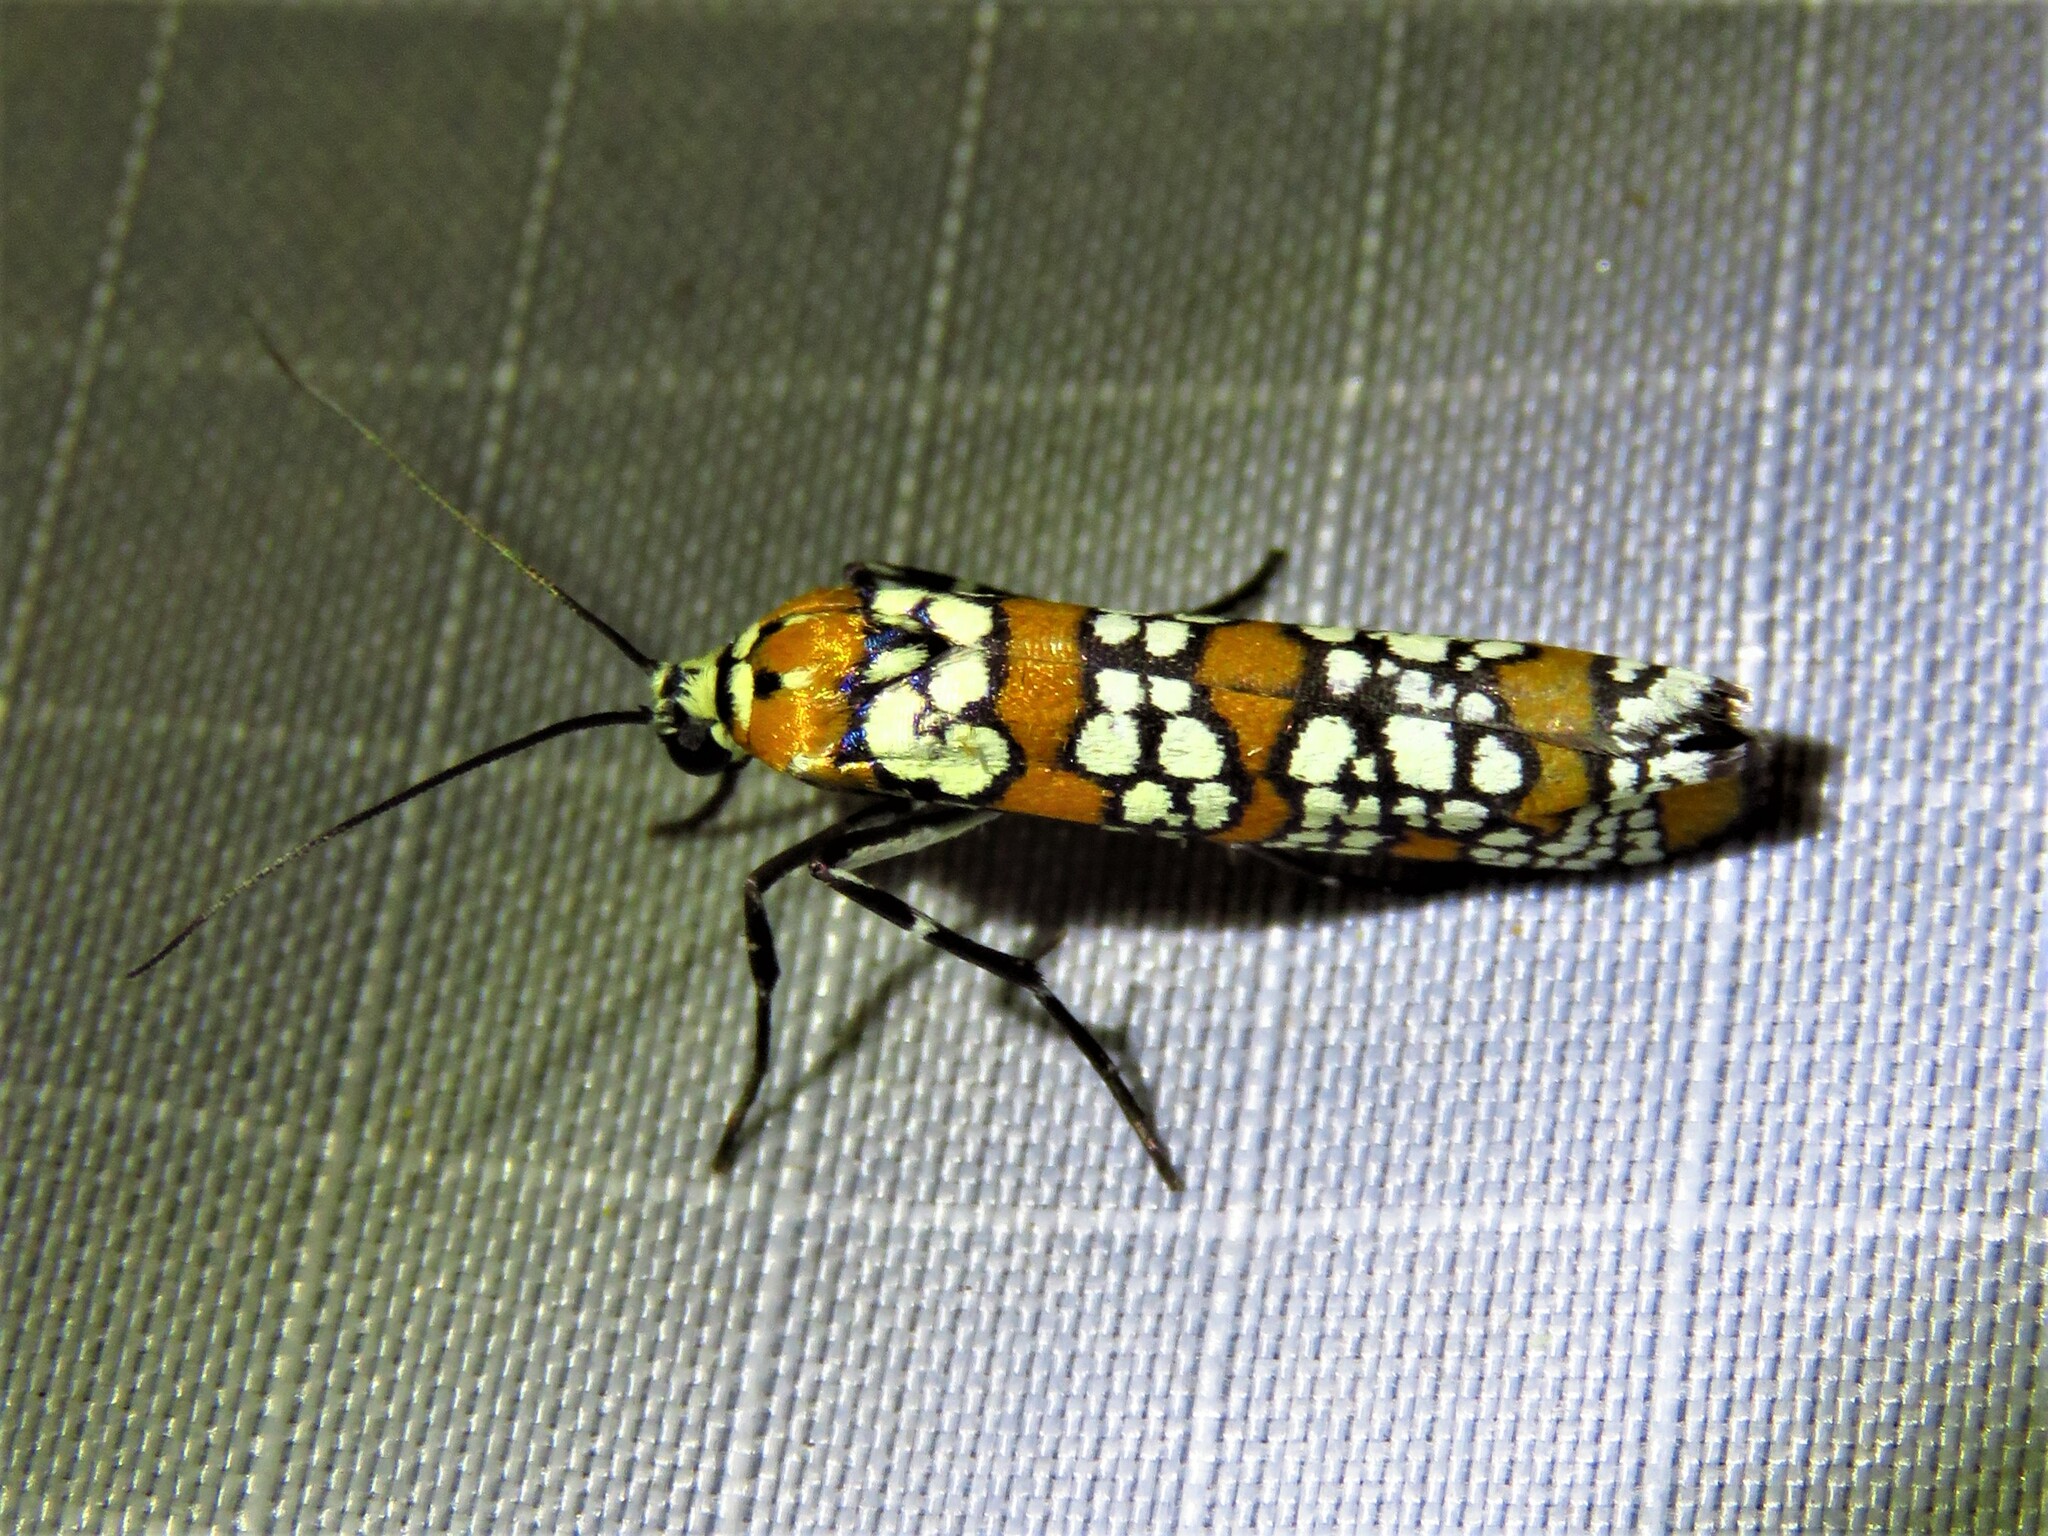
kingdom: Animalia
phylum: Arthropoda
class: Insecta
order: Lepidoptera
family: Attevidae
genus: Atteva
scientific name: Atteva punctella
